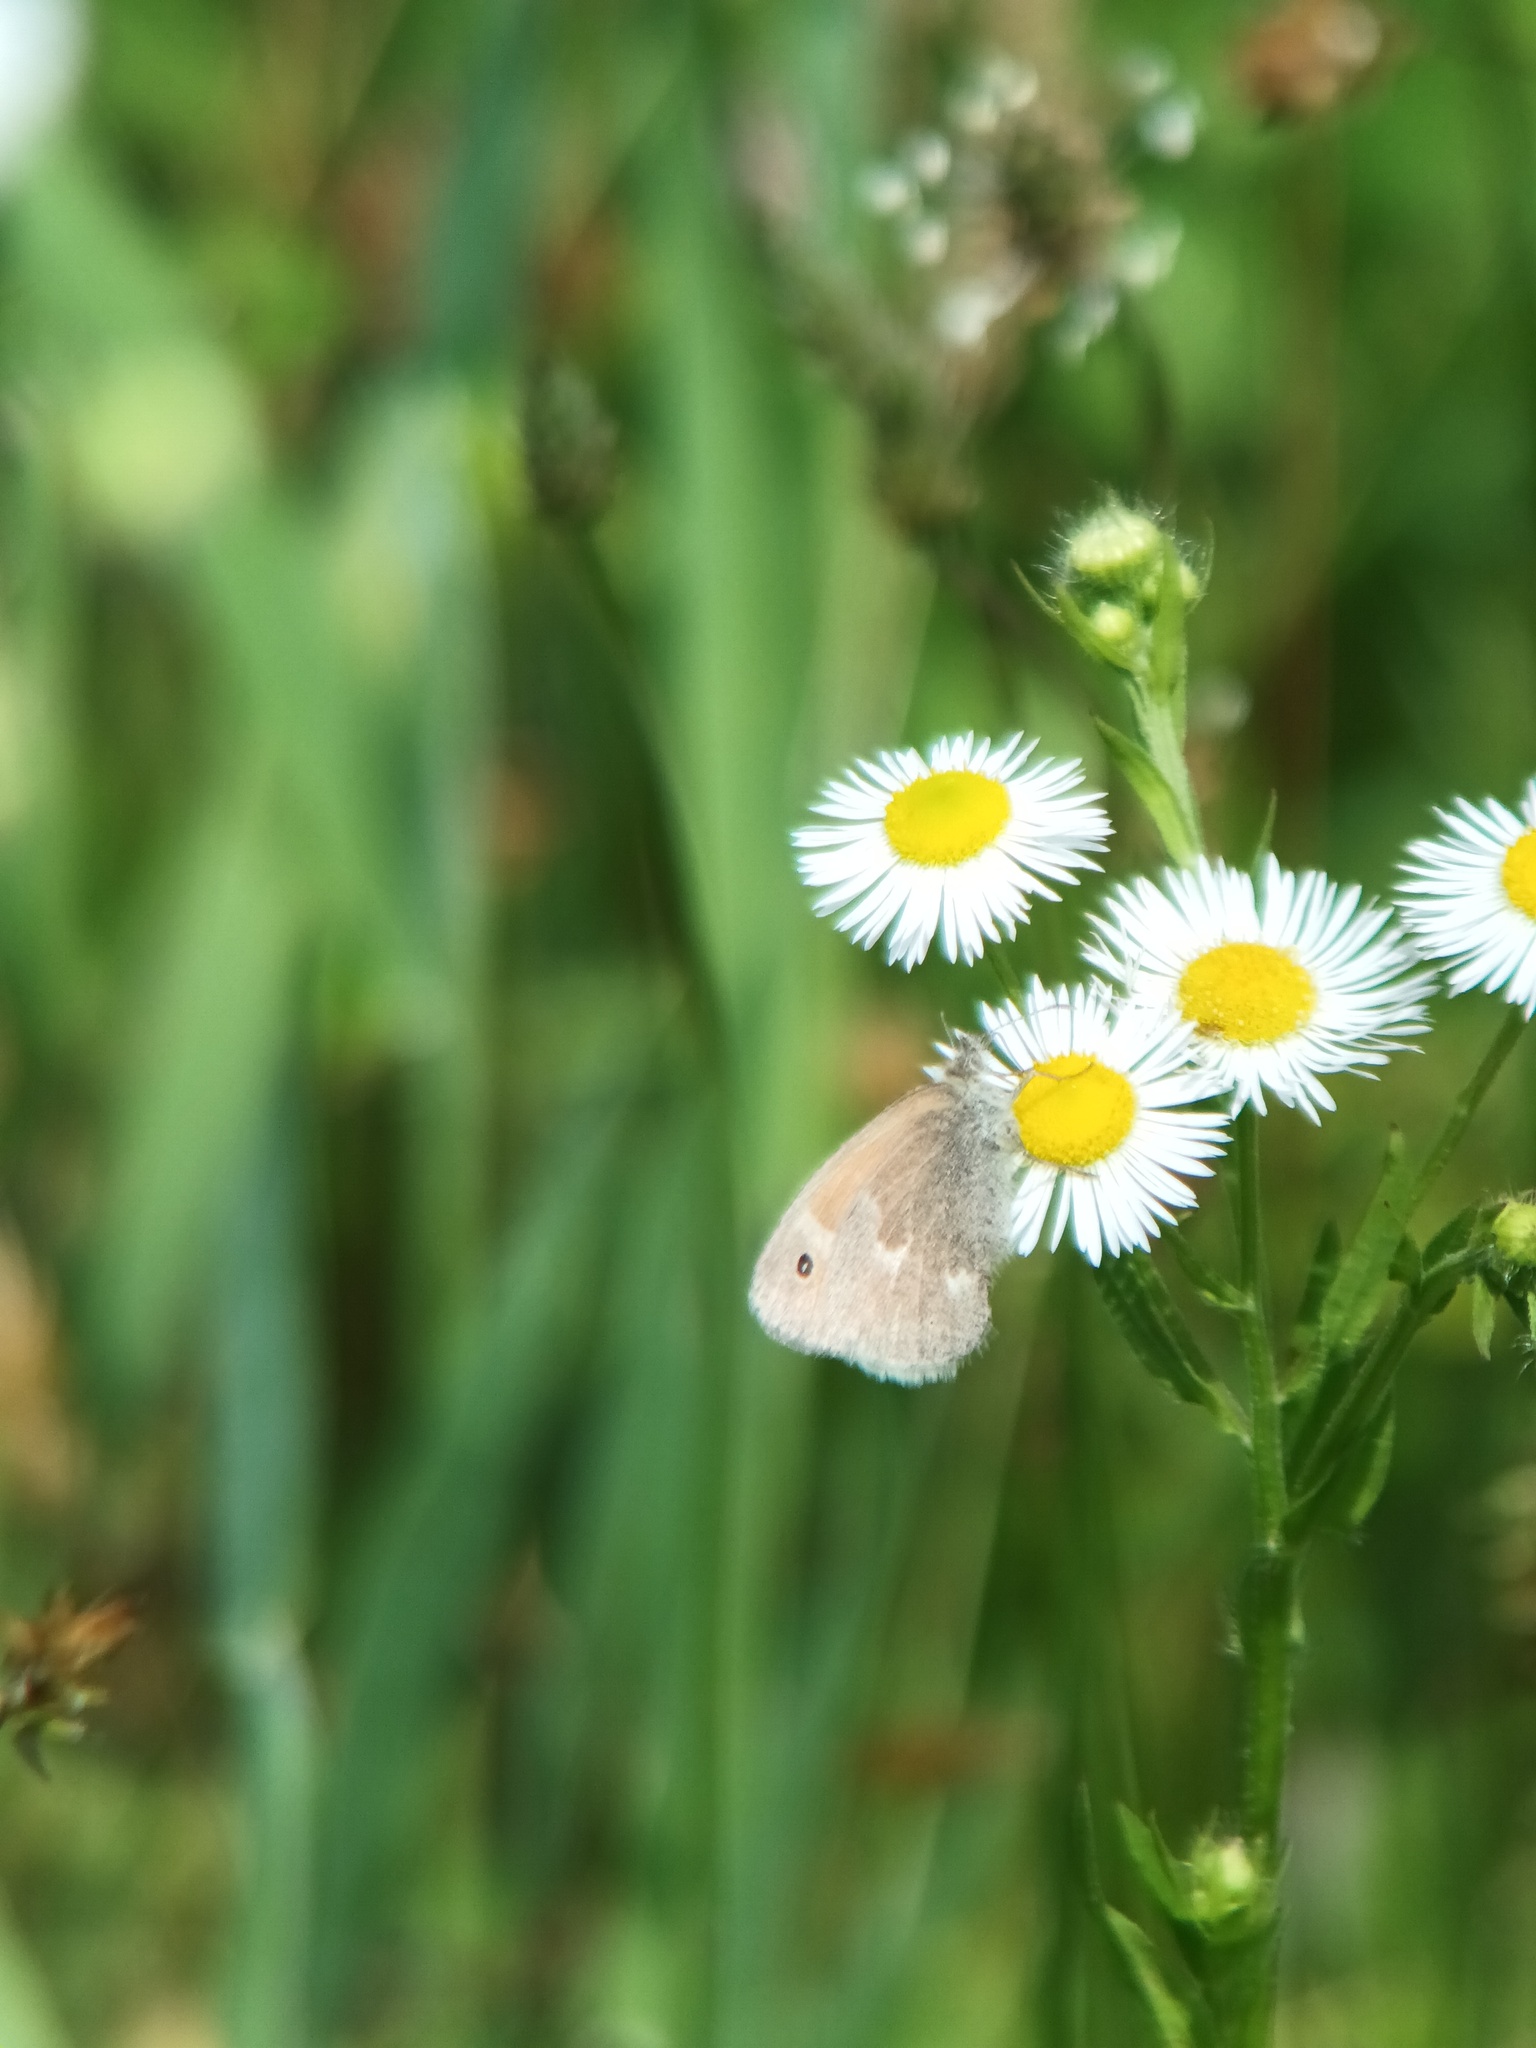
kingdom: Animalia
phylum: Arthropoda
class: Insecta
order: Lepidoptera
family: Nymphalidae
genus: Coenonympha
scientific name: Coenonympha california
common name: Common ringlet
